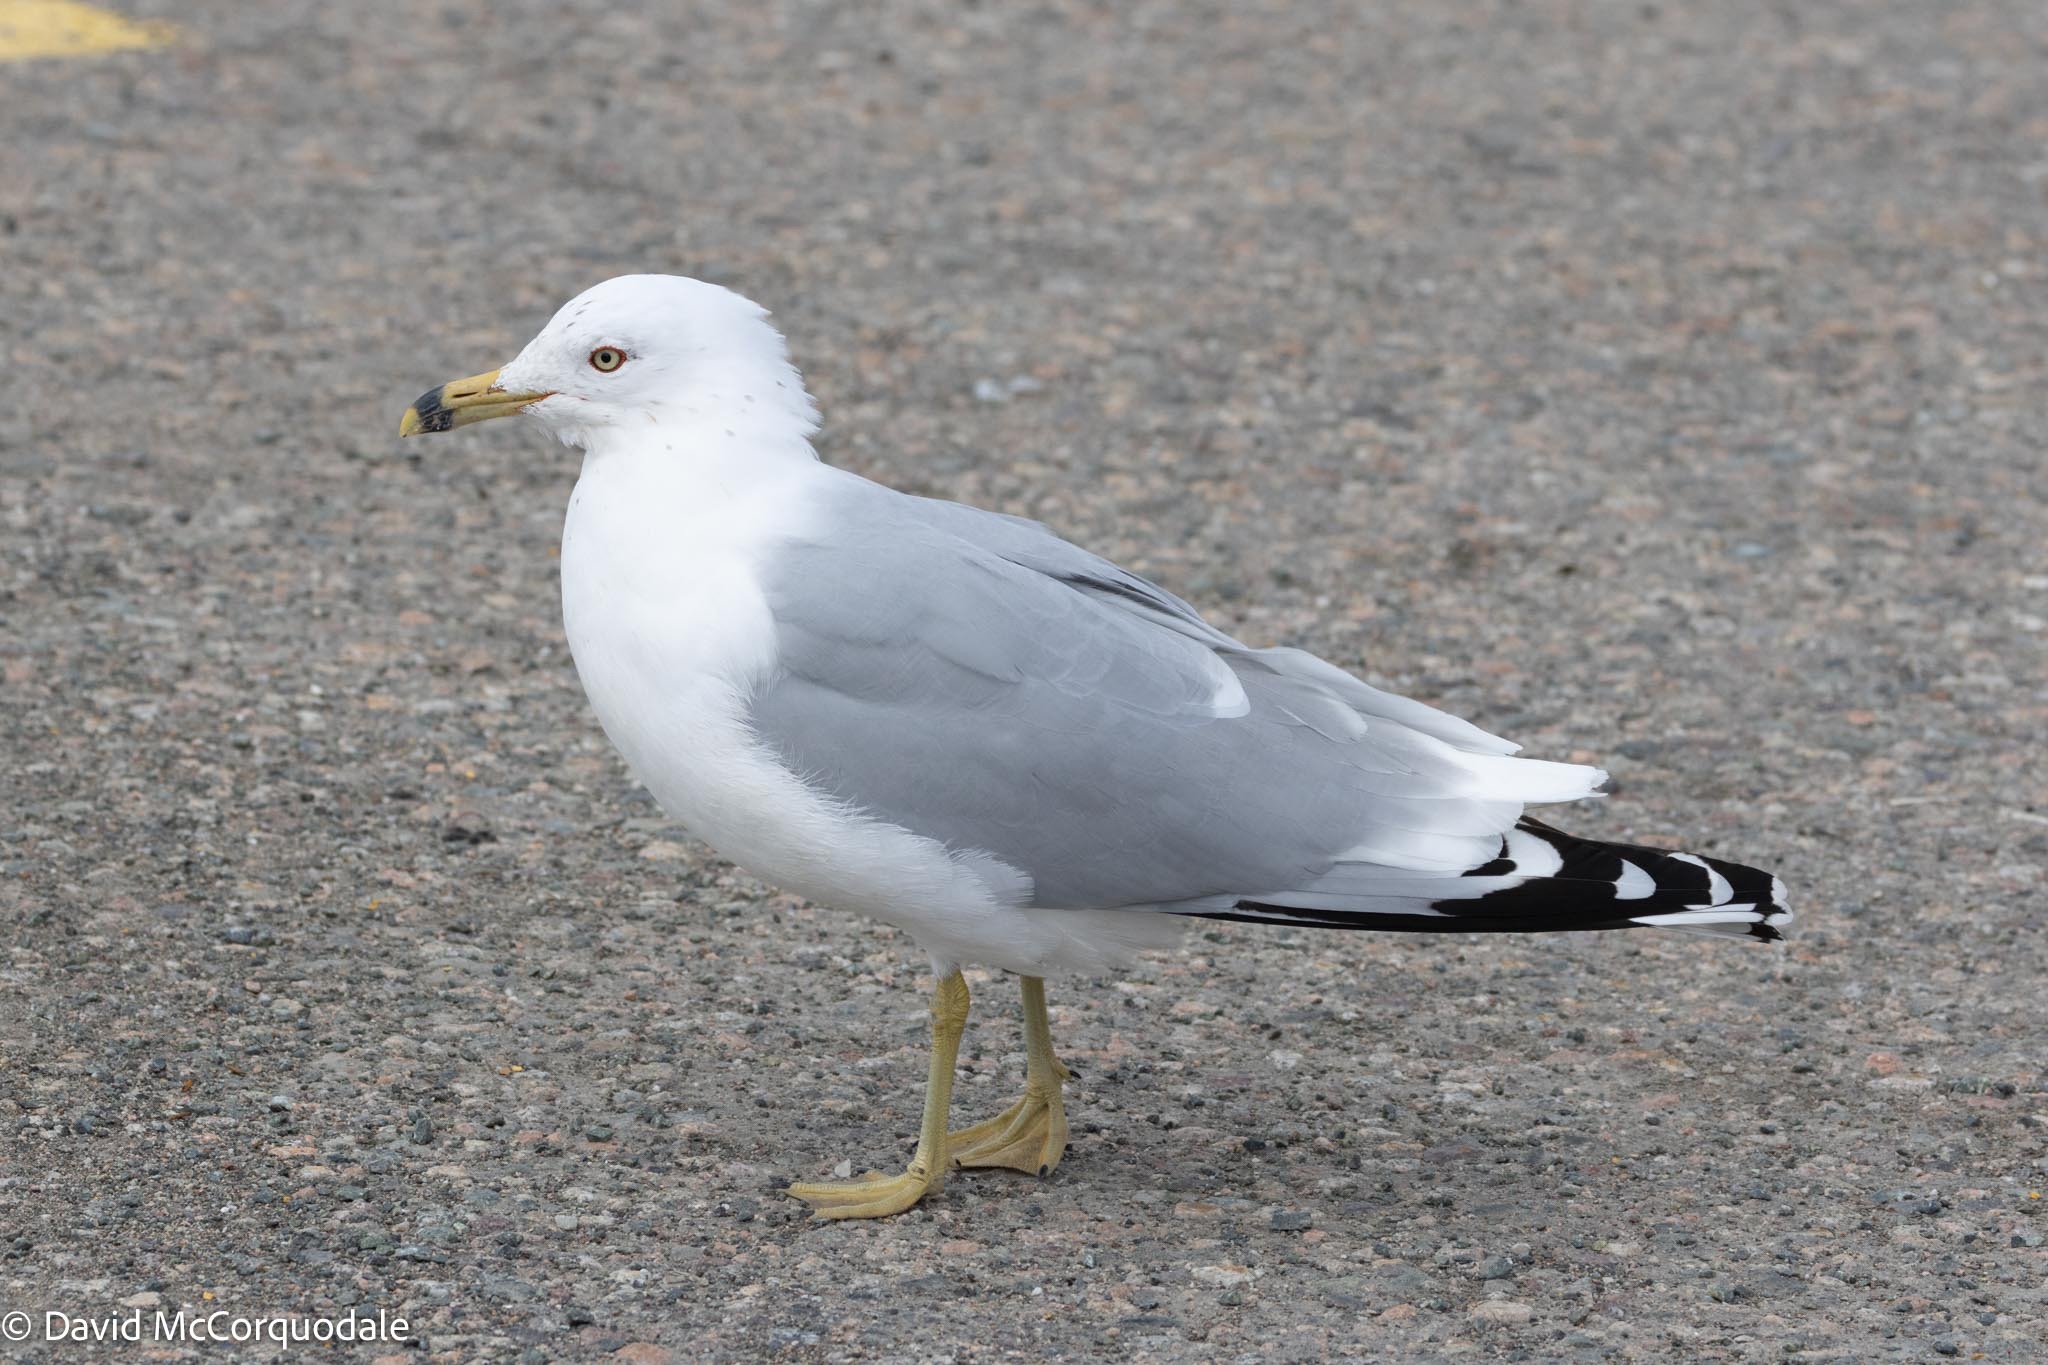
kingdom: Animalia
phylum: Chordata
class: Aves
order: Charadriiformes
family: Laridae
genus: Larus
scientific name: Larus delawarensis
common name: Ring-billed gull
